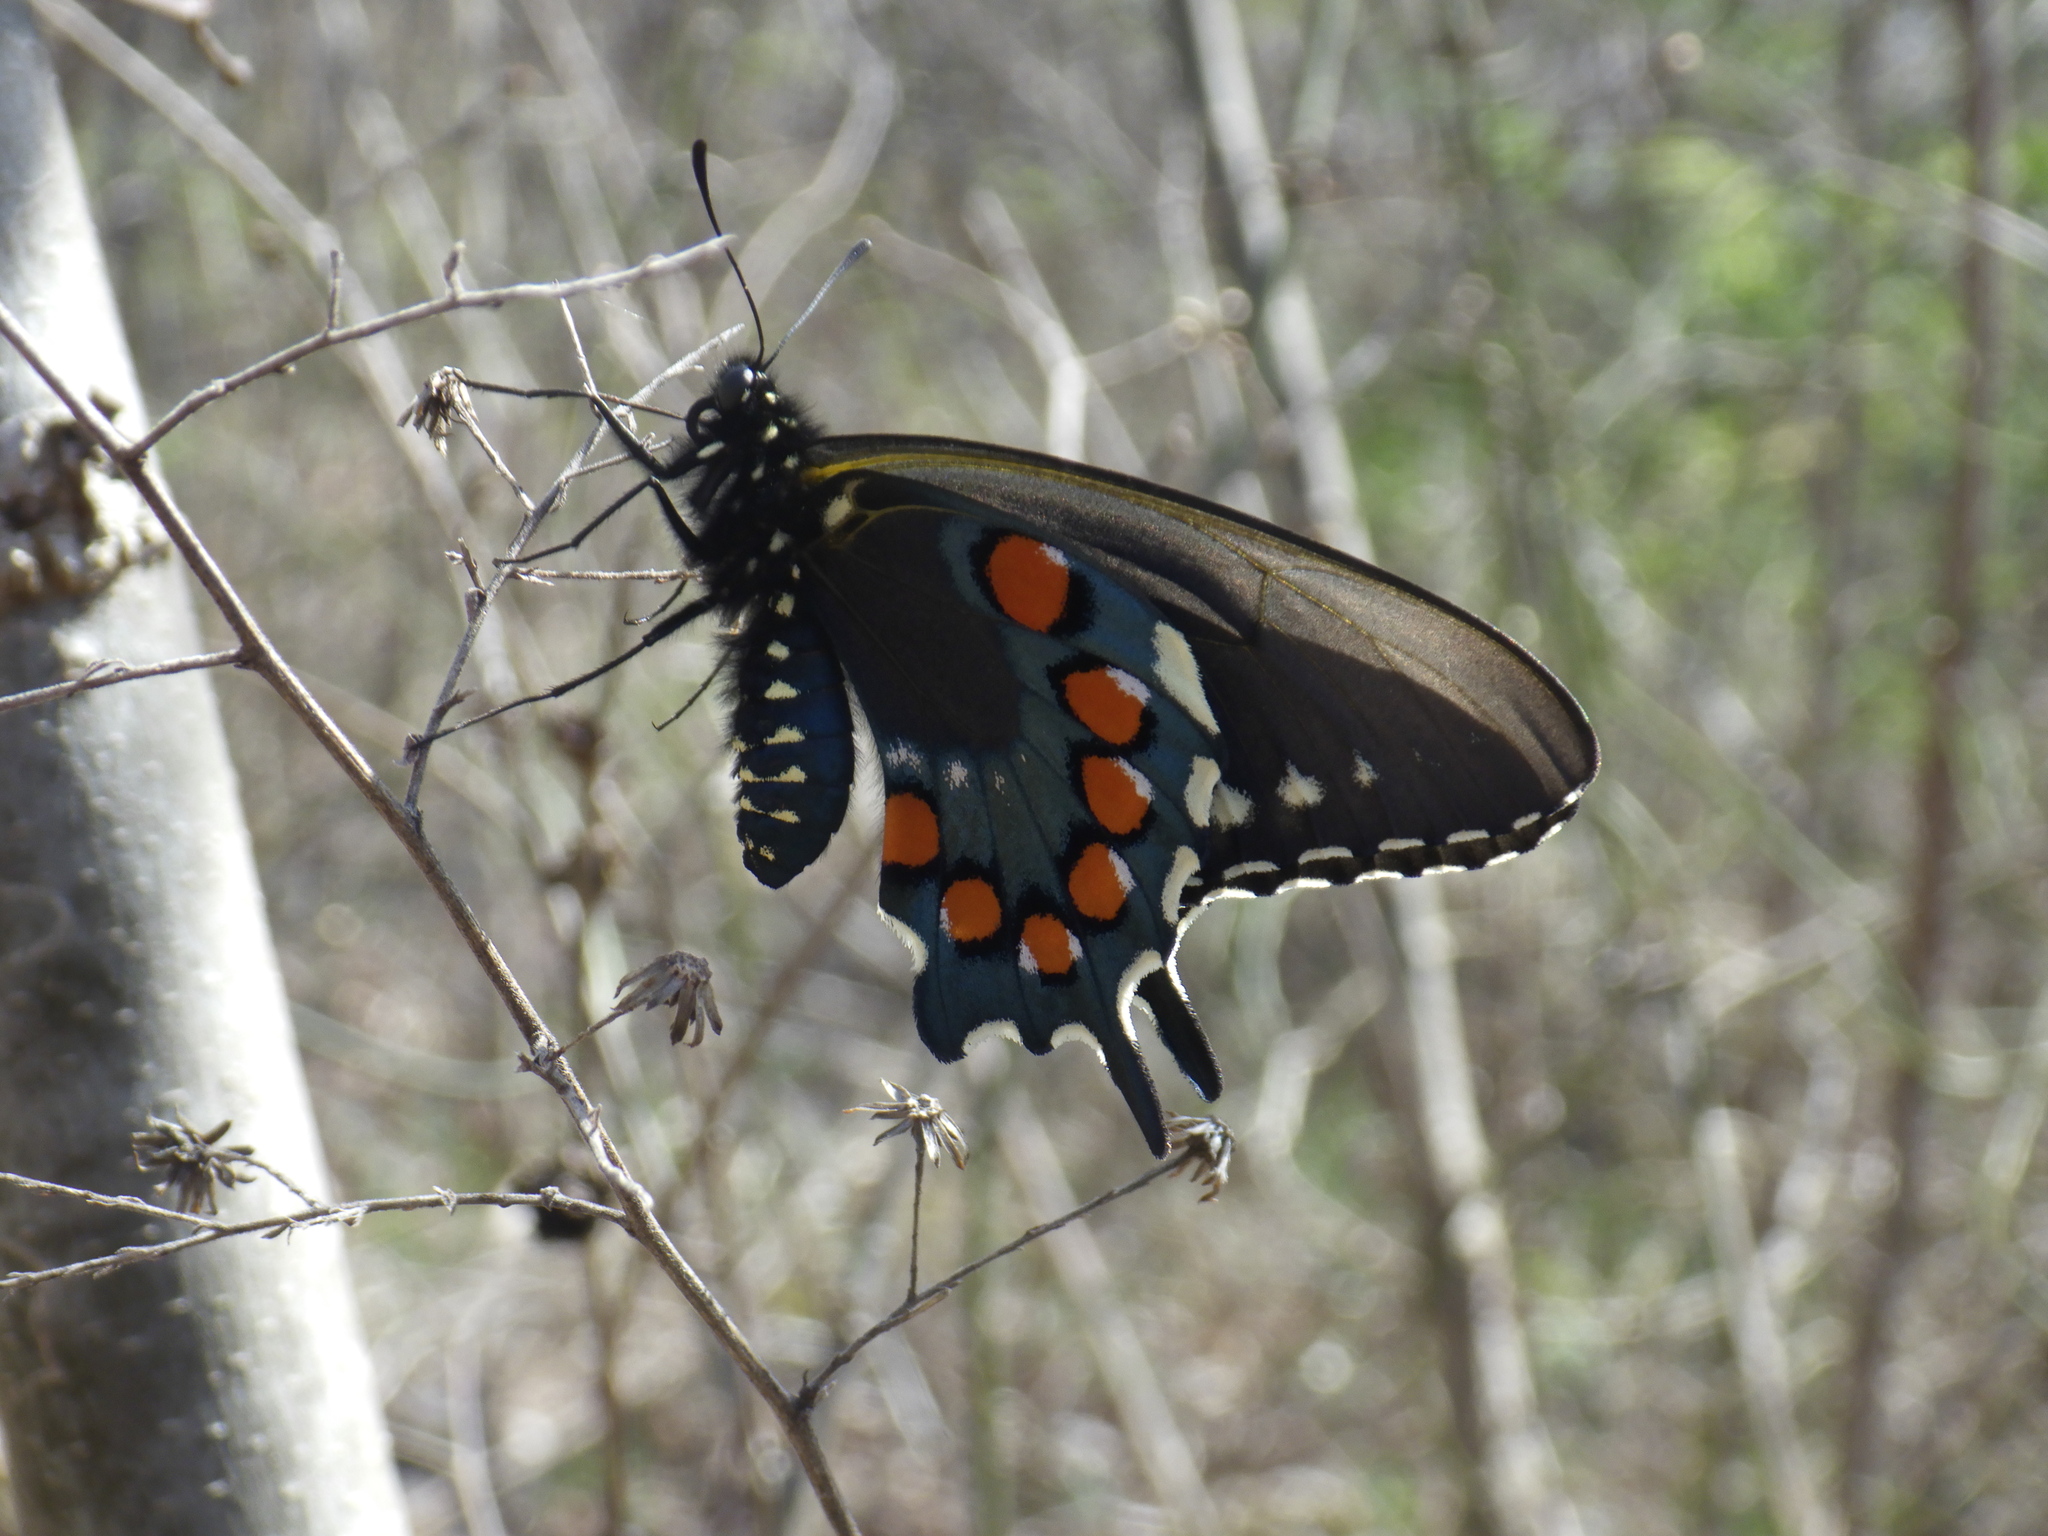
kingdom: Animalia
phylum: Arthropoda
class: Insecta
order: Lepidoptera
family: Papilionidae
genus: Battus
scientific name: Battus philenor
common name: Pipevine swallowtail
